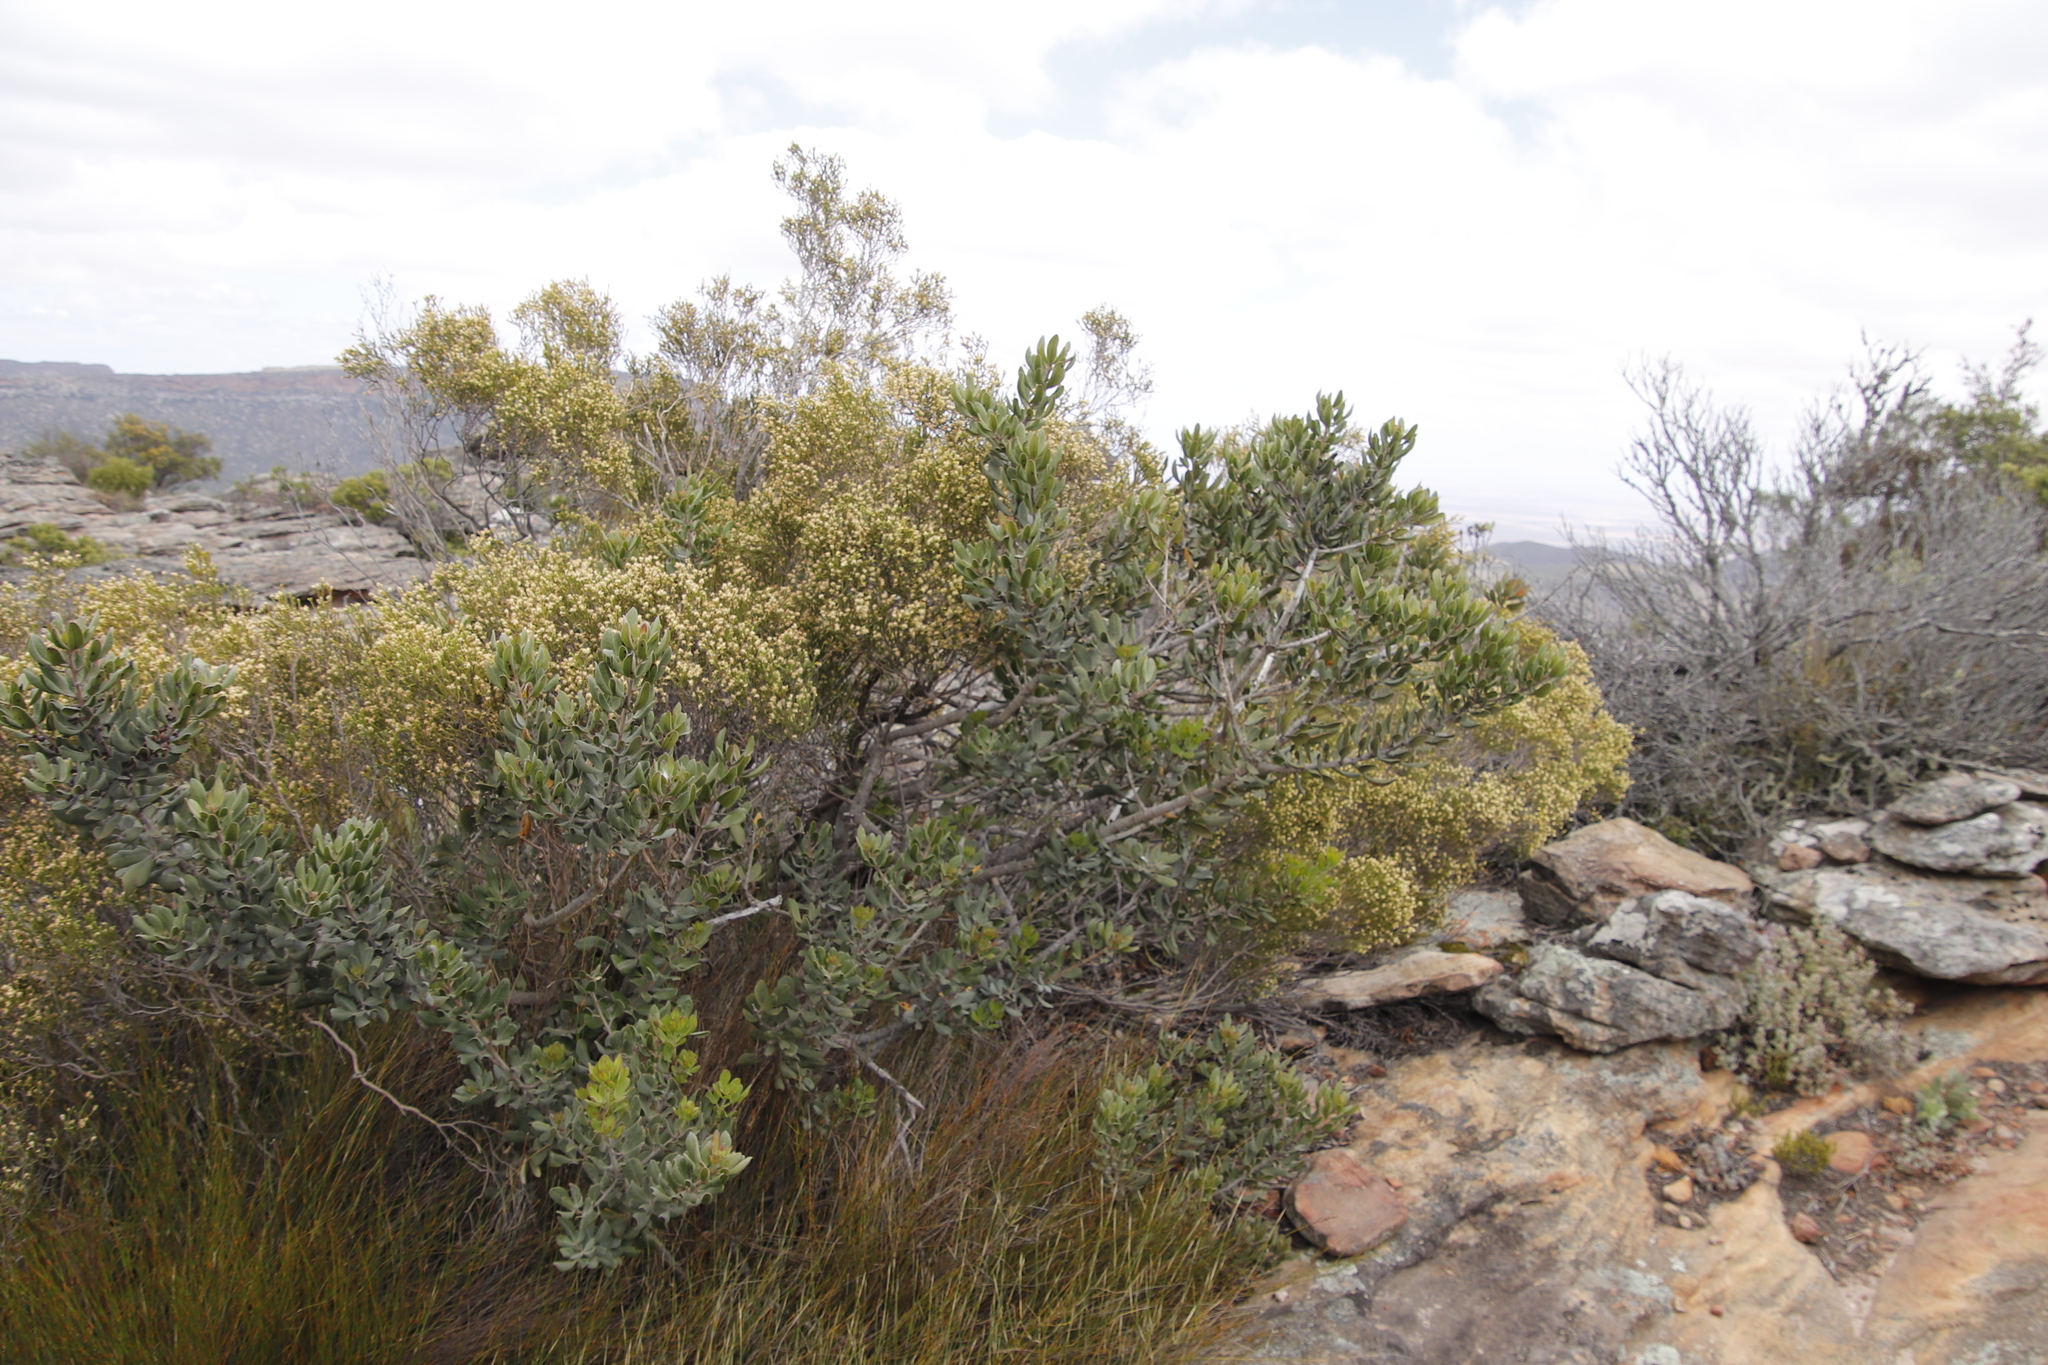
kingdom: Plantae
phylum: Tracheophyta
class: Magnoliopsida
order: Sapindales
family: Anacardiaceae
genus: Searsia
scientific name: Searsia scytophylla
